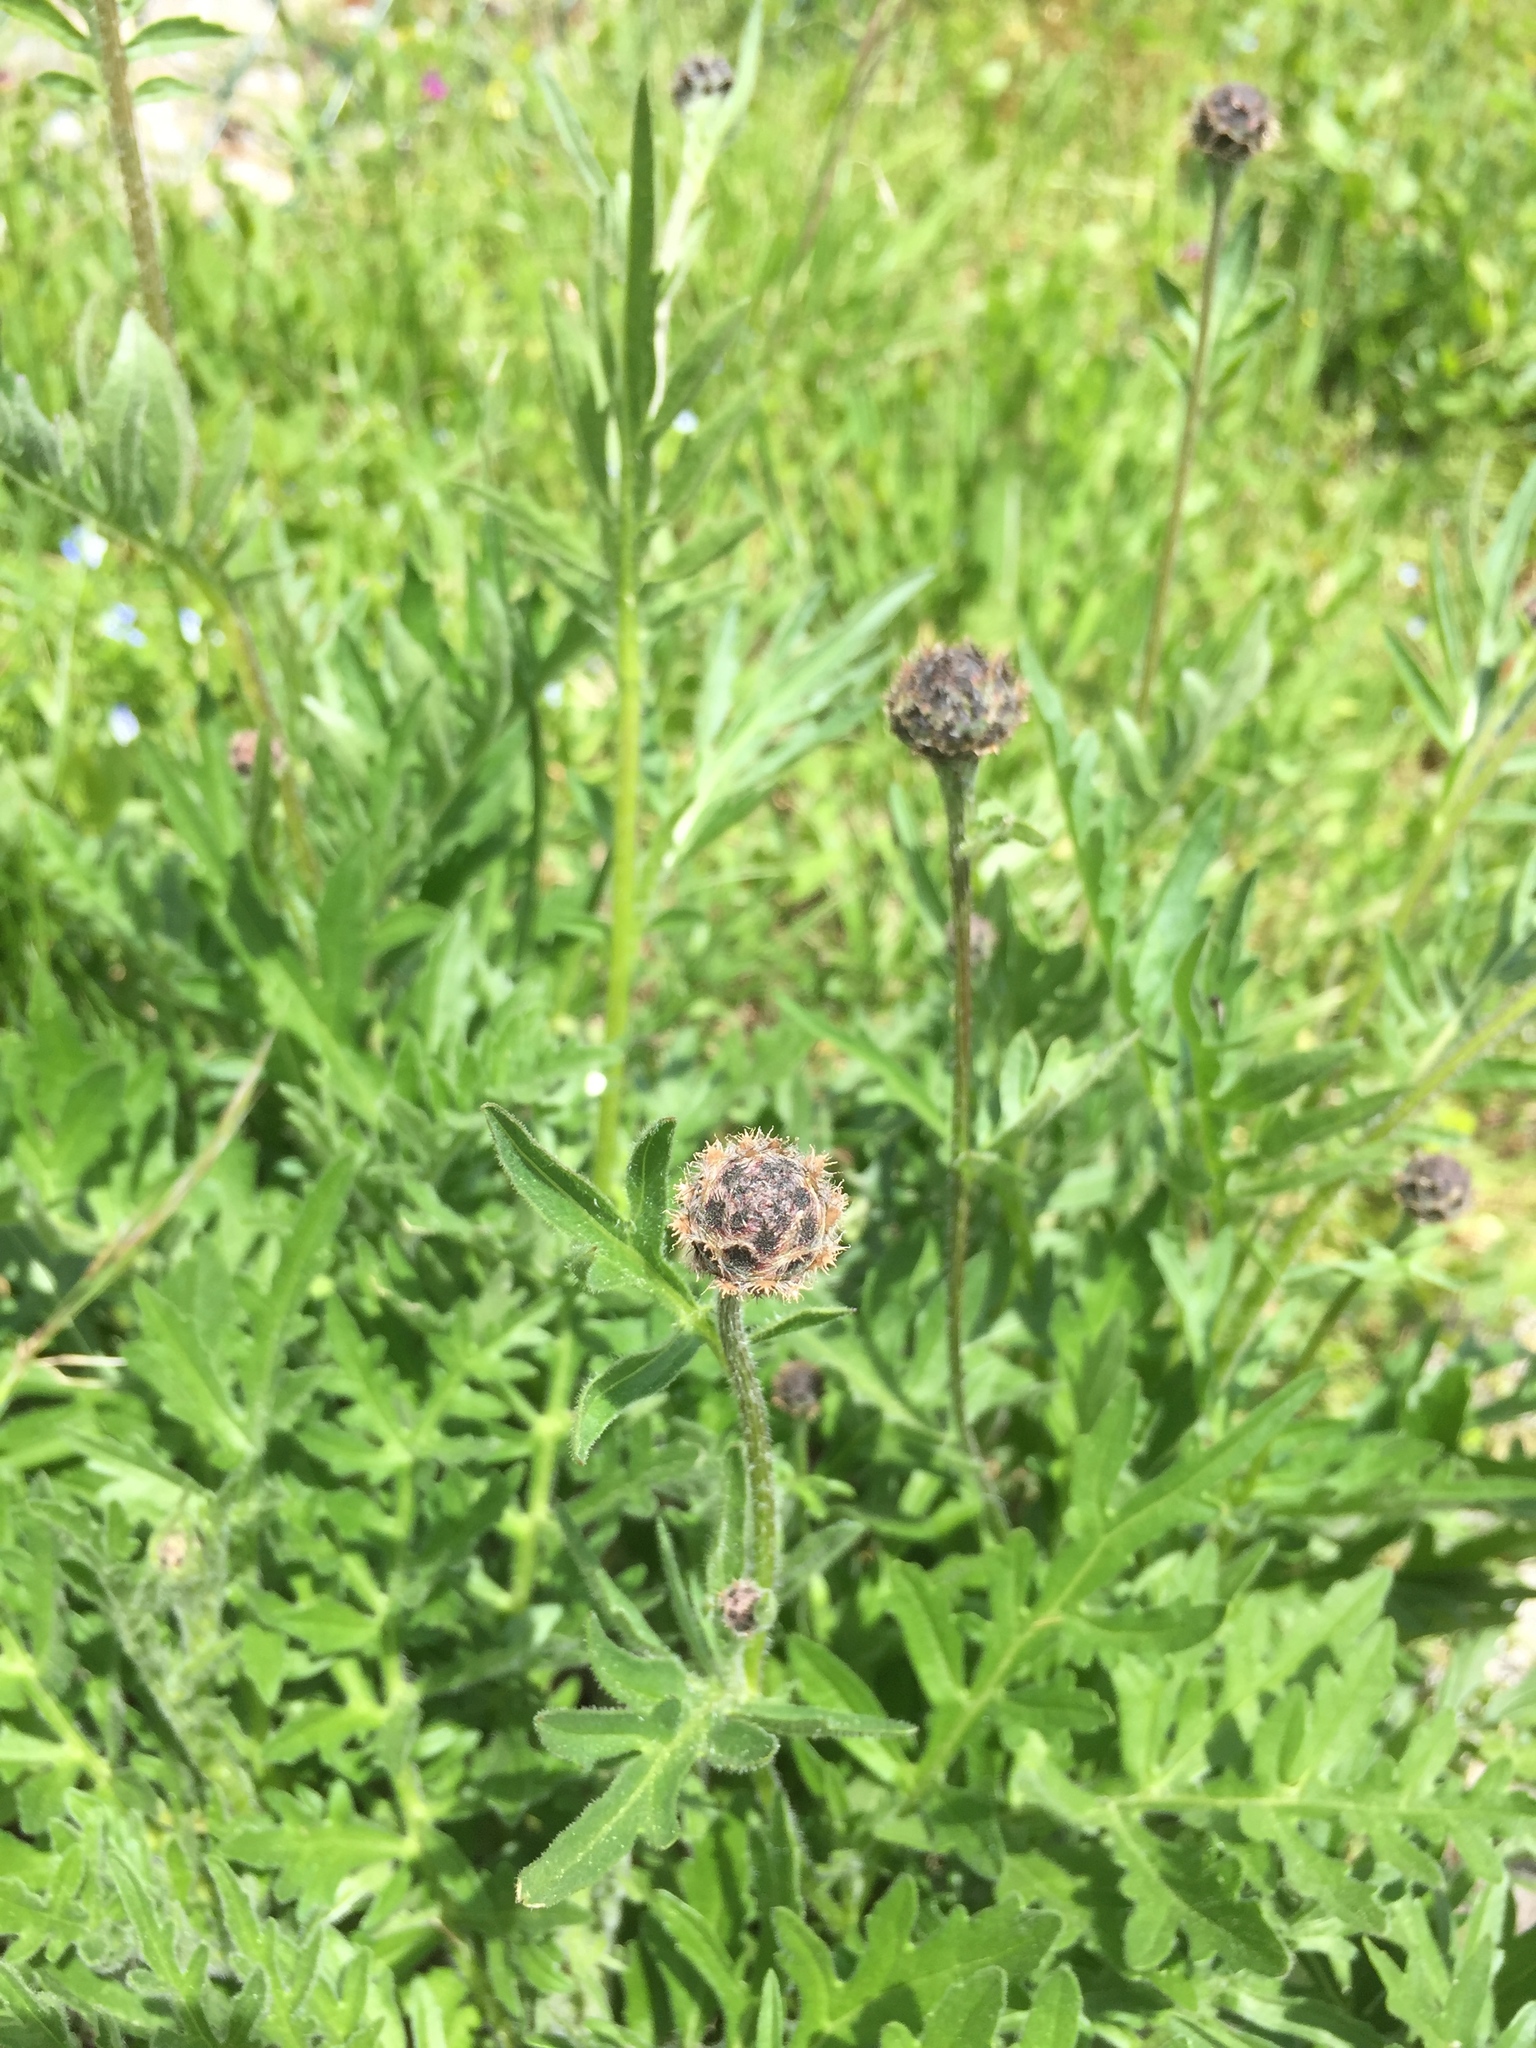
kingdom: Plantae
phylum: Tracheophyta
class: Magnoliopsida
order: Asterales
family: Asteraceae
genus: Centaurea
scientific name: Centaurea scabiosa
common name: Greater knapweed
